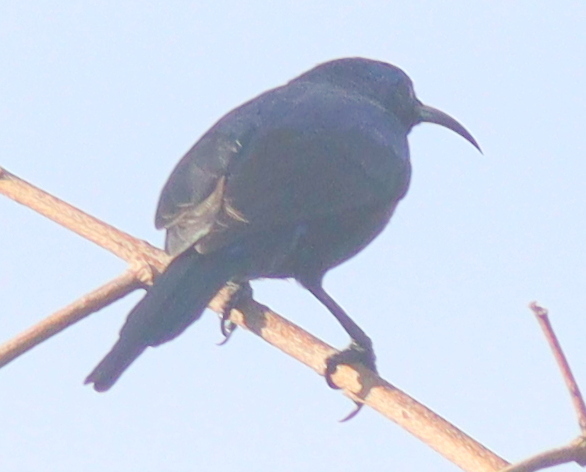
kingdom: Animalia
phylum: Chordata
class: Aves
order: Passeriformes
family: Nectariniidae
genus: Cinnyris
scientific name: Cinnyris erythrocercus
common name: Red-chested sunbird
